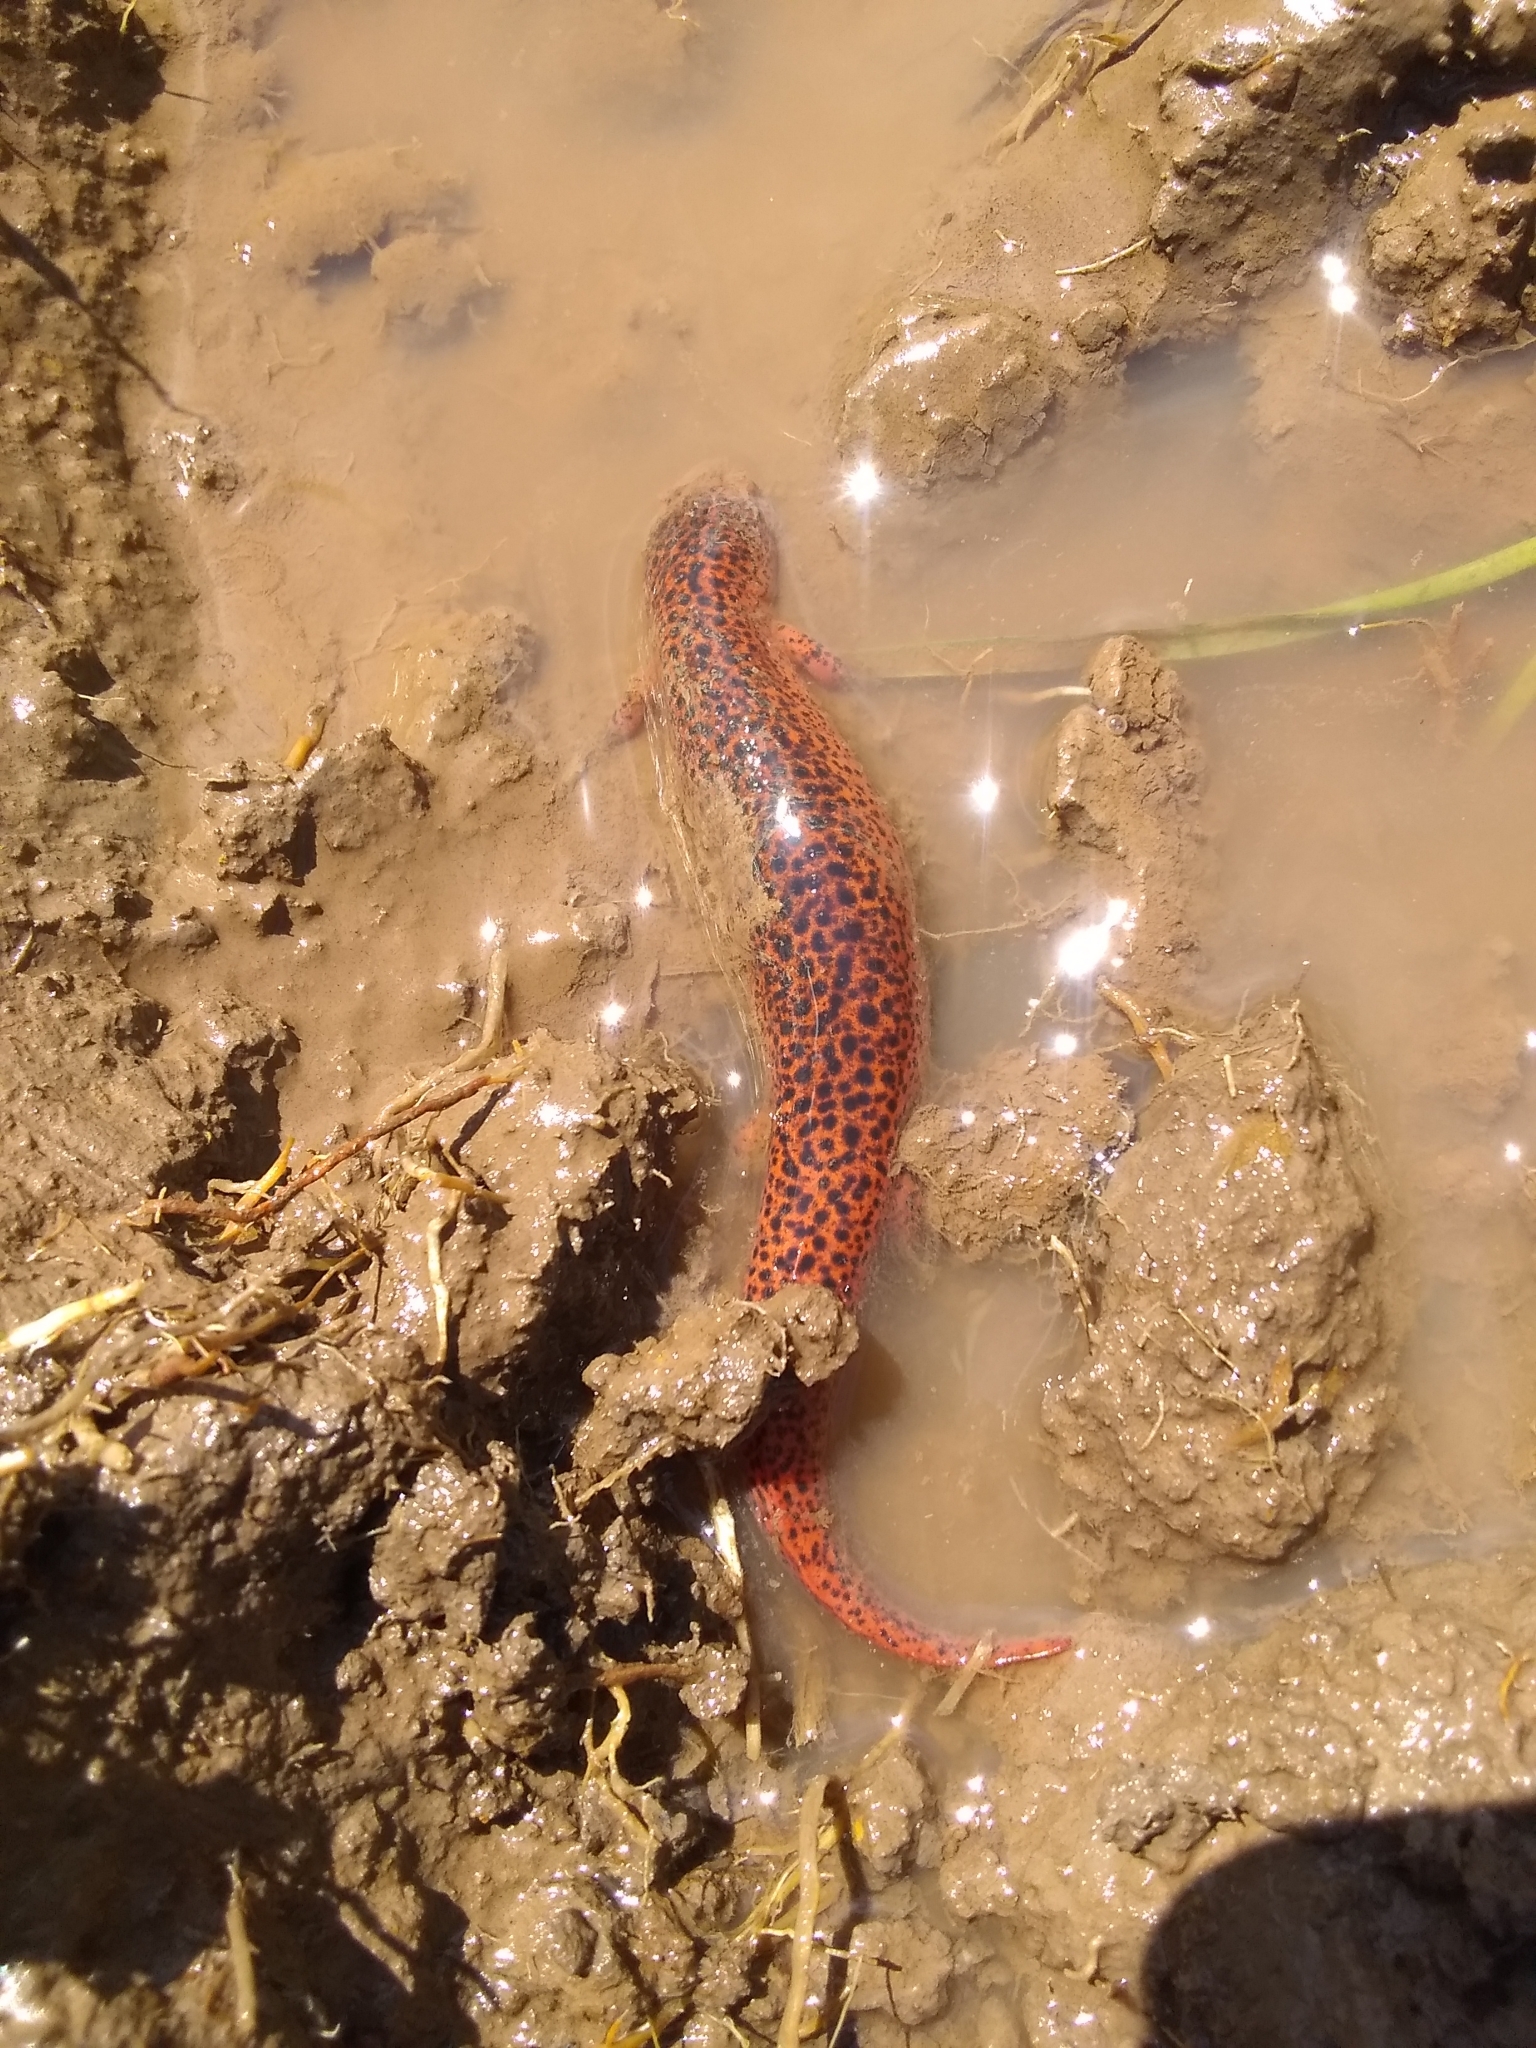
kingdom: Animalia
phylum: Chordata
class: Amphibia
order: Caudata
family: Plethodontidae
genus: Pseudotriton
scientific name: Pseudotriton ruber
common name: Red salamander
